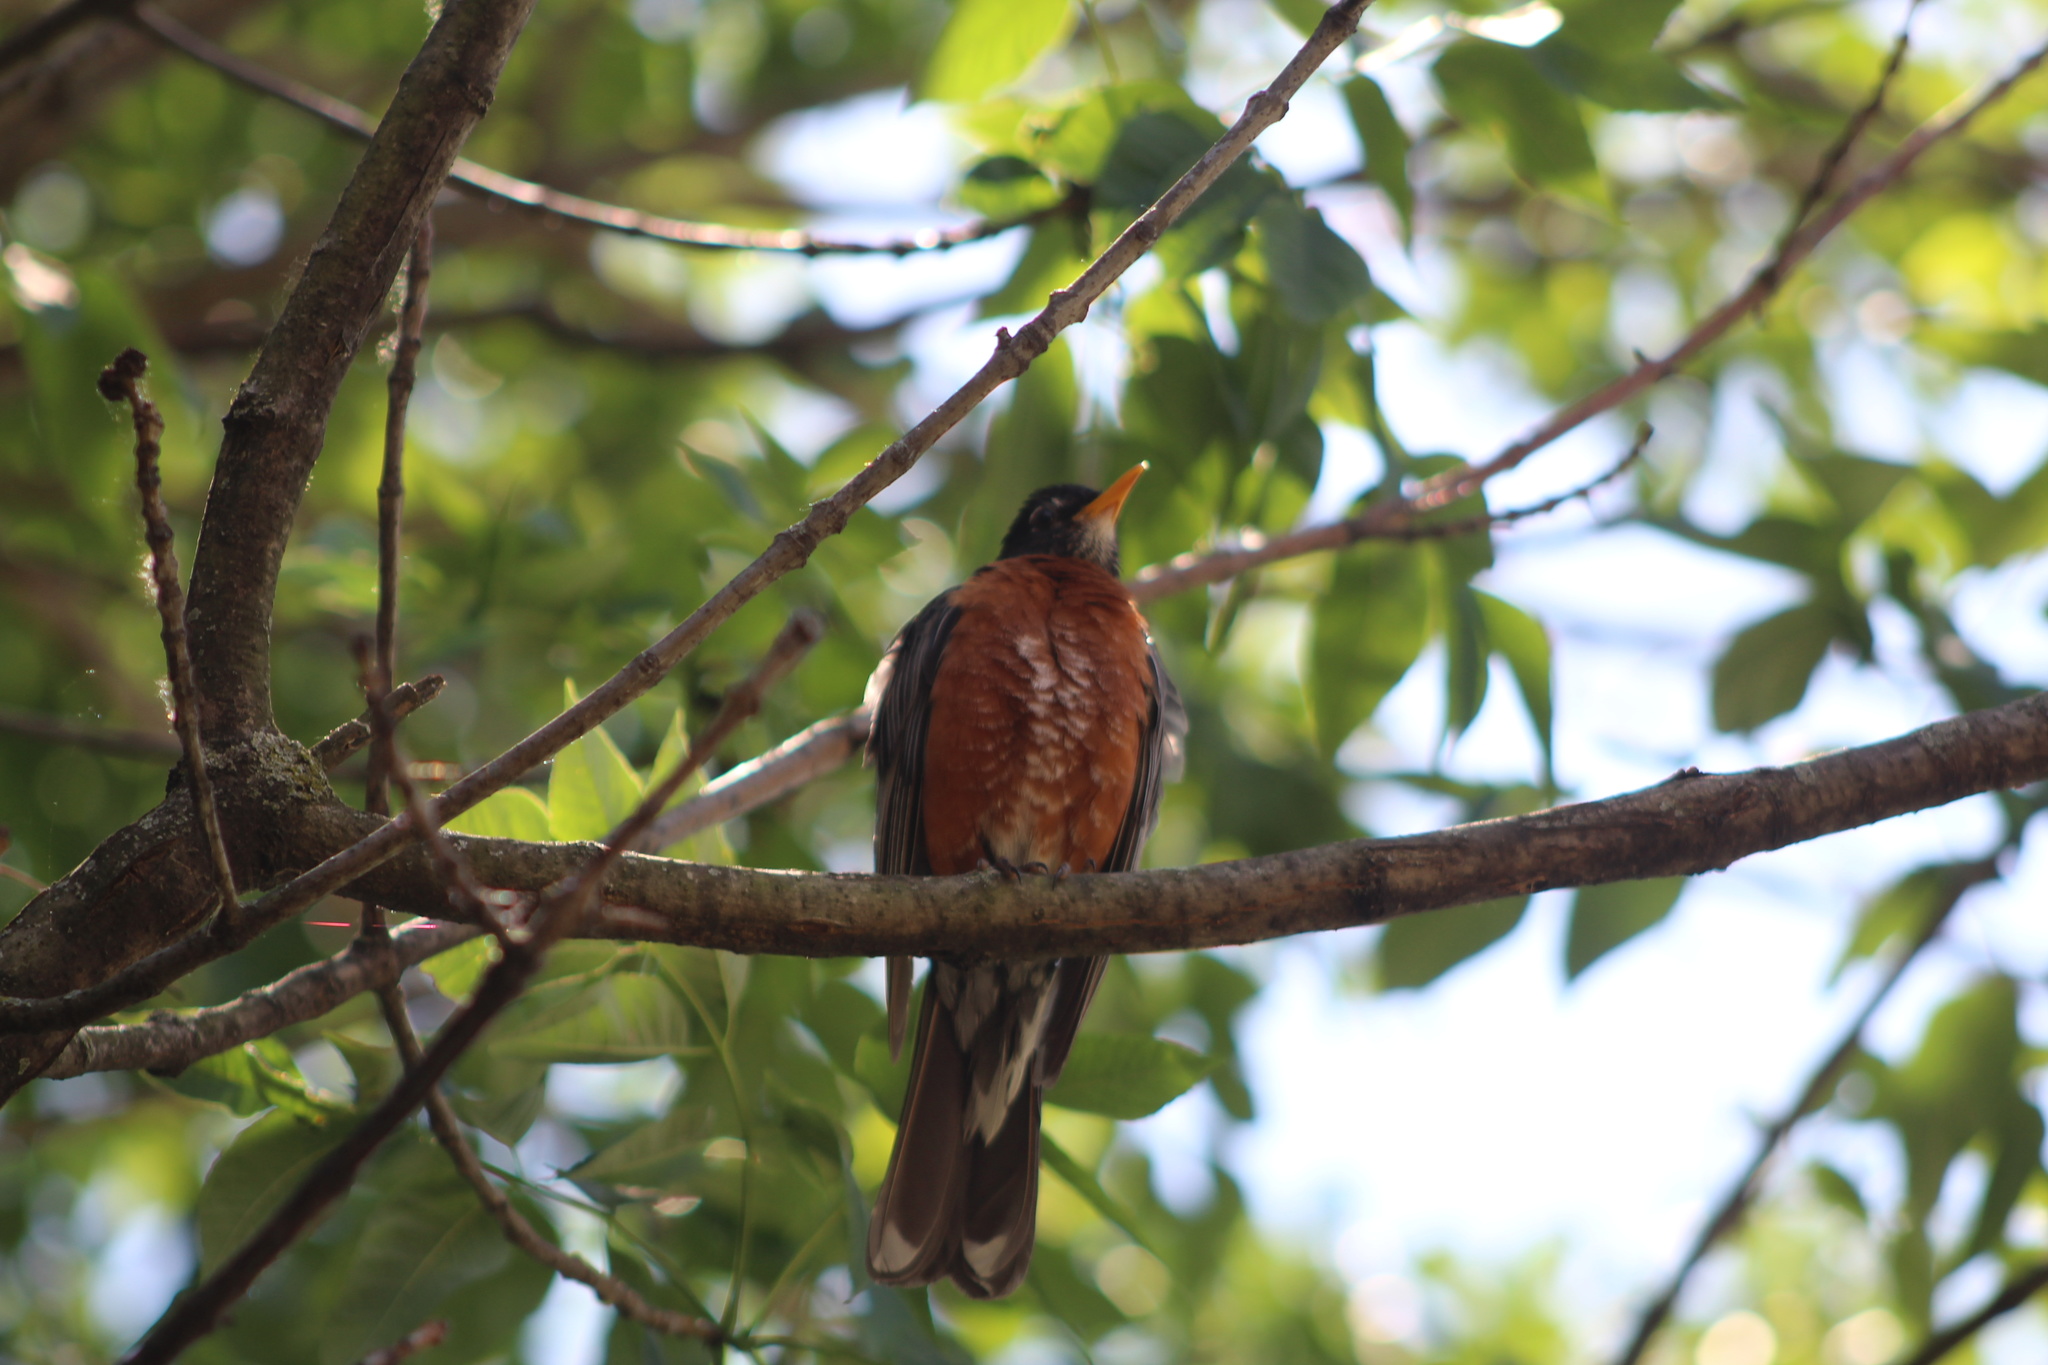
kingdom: Animalia
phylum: Chordata
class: Aves
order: Passeriformes
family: Turdidae
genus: Turdus
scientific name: Turdus migratorius
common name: American robin
